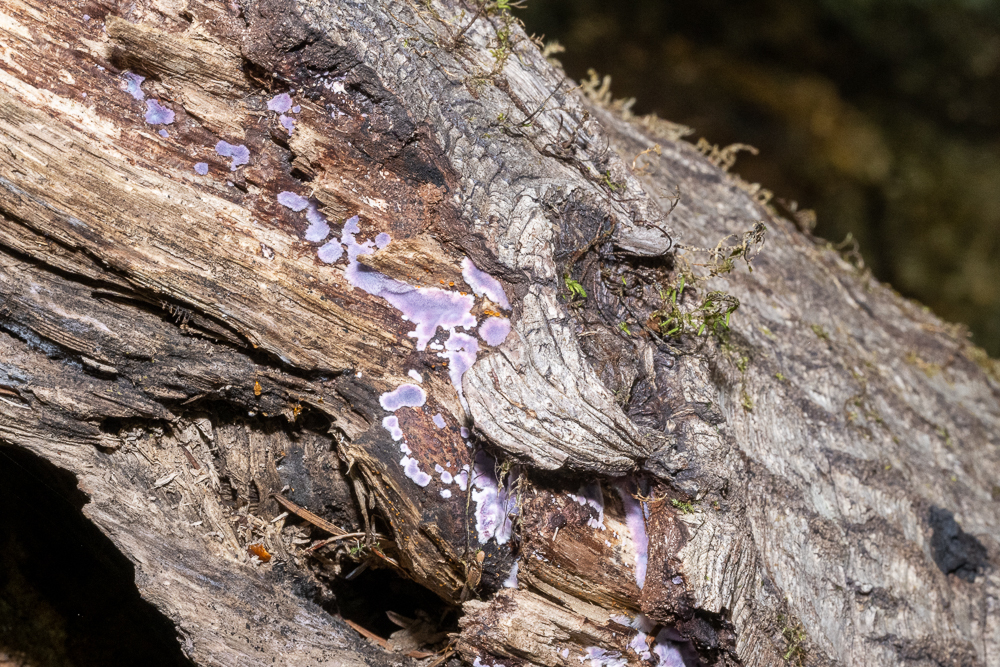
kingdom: Fungi
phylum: Basidiomycota
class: Agaricomycetes
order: Corticiales
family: Punctulariaceae
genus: Punctularia
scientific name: Punctularia atropurpurascens
